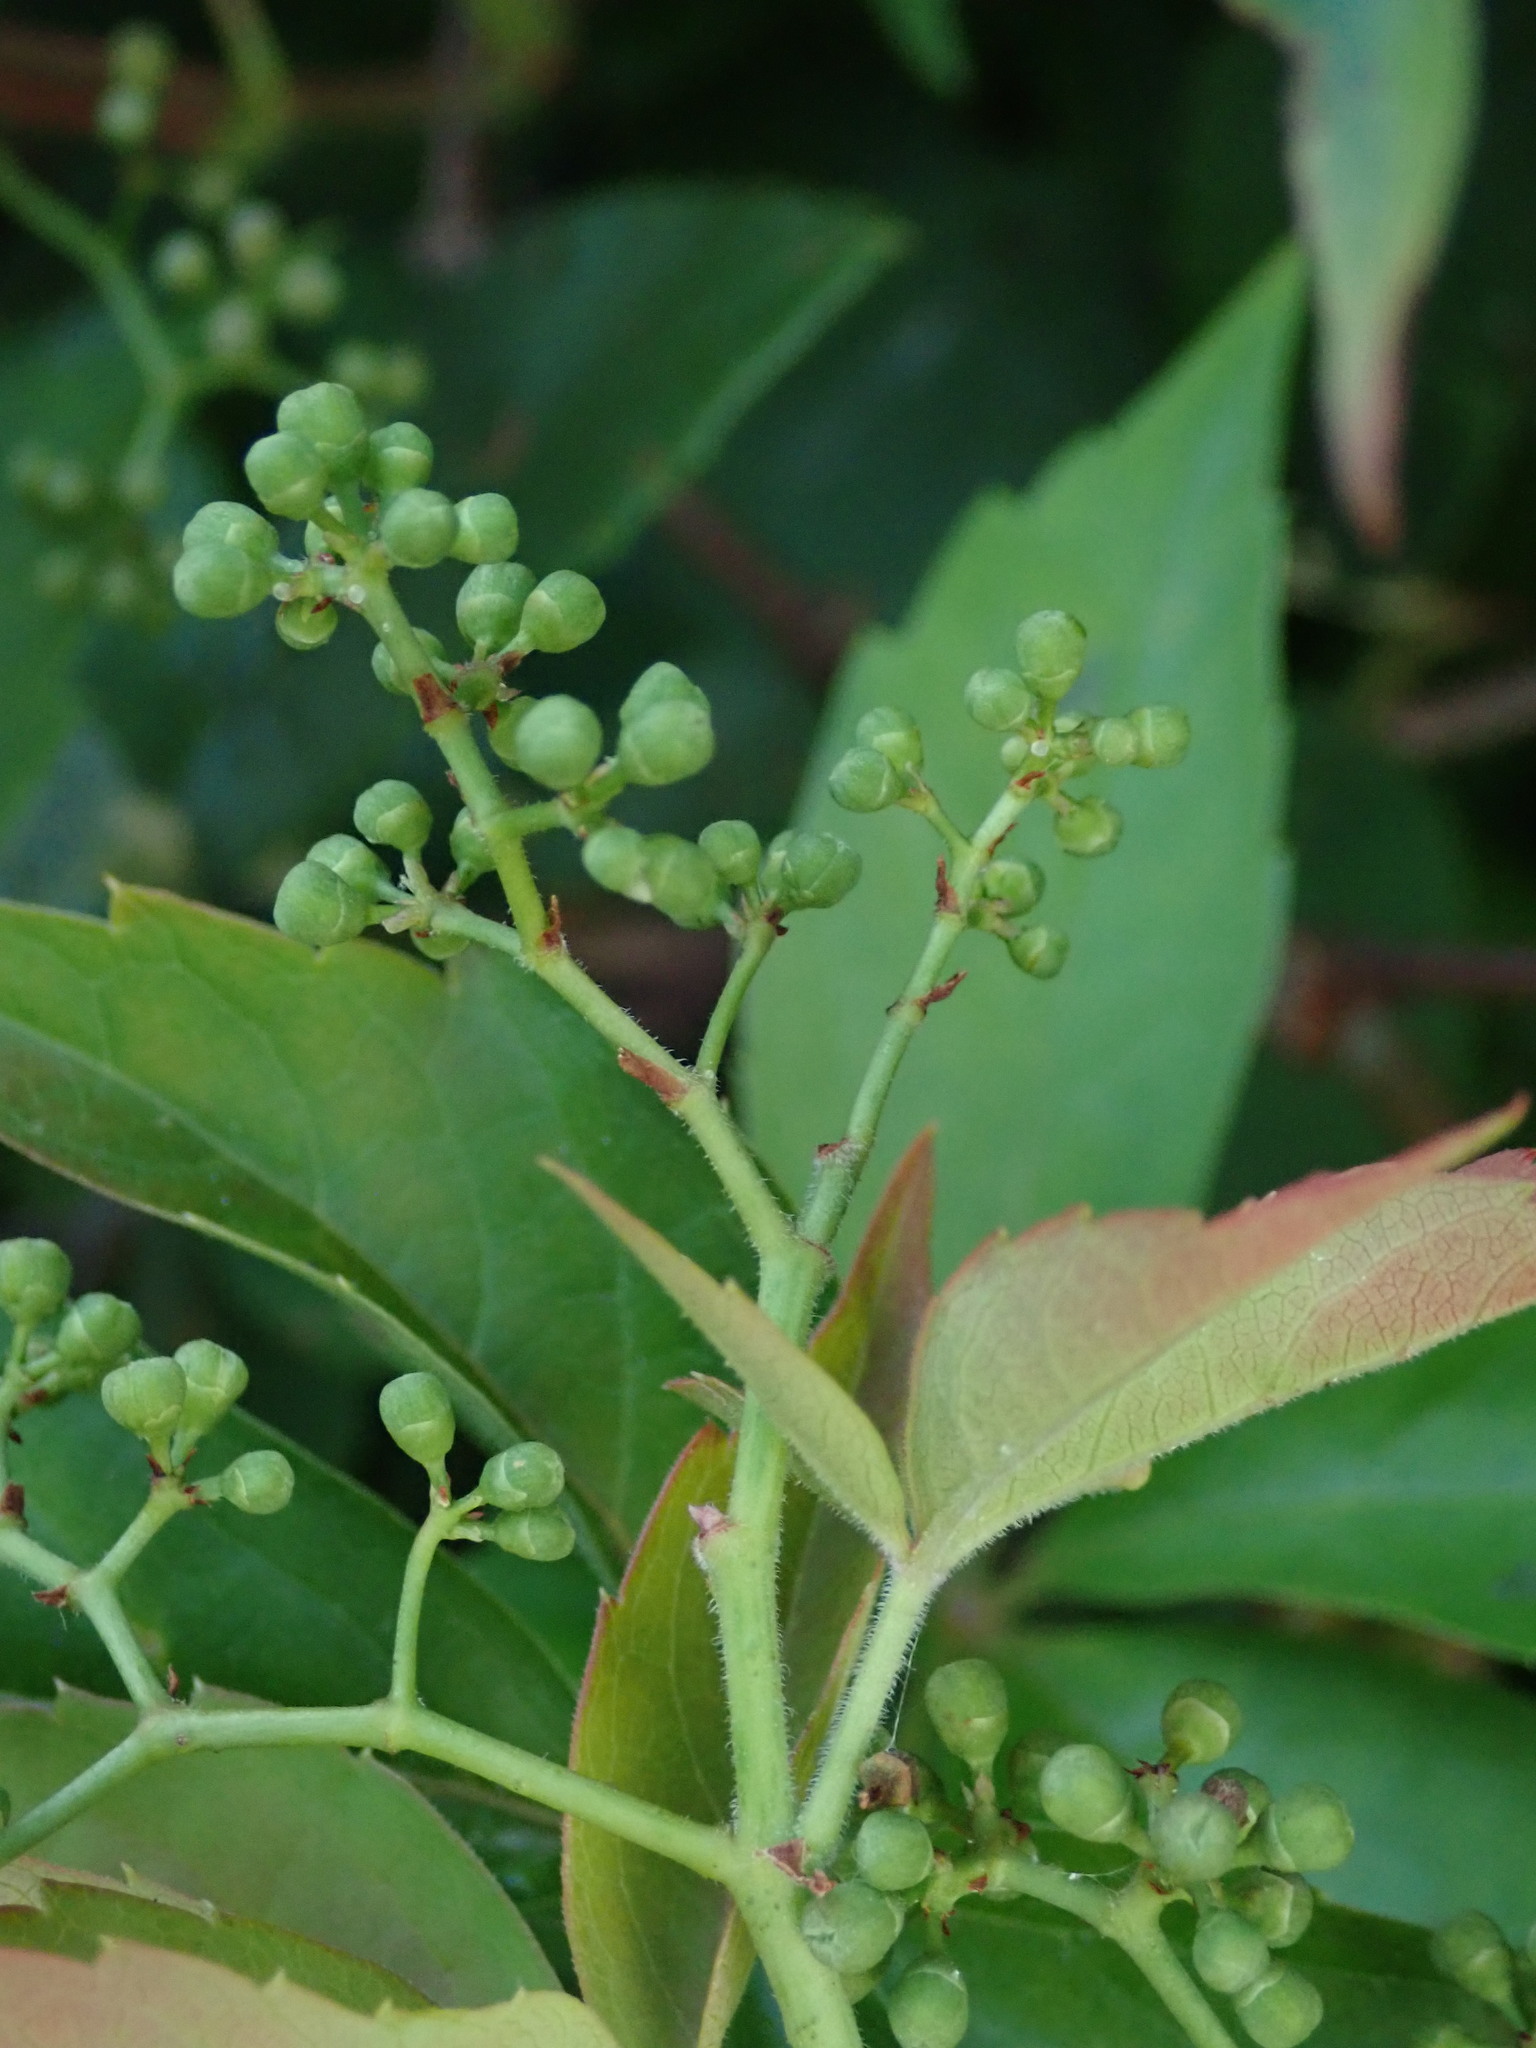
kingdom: Plantae
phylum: Tracheophyta
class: Magnoliopsida
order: Vitales
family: Vitaceae
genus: Parthenocissus
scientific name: Parthenocissus quinquefolia
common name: Virginia-creeper
